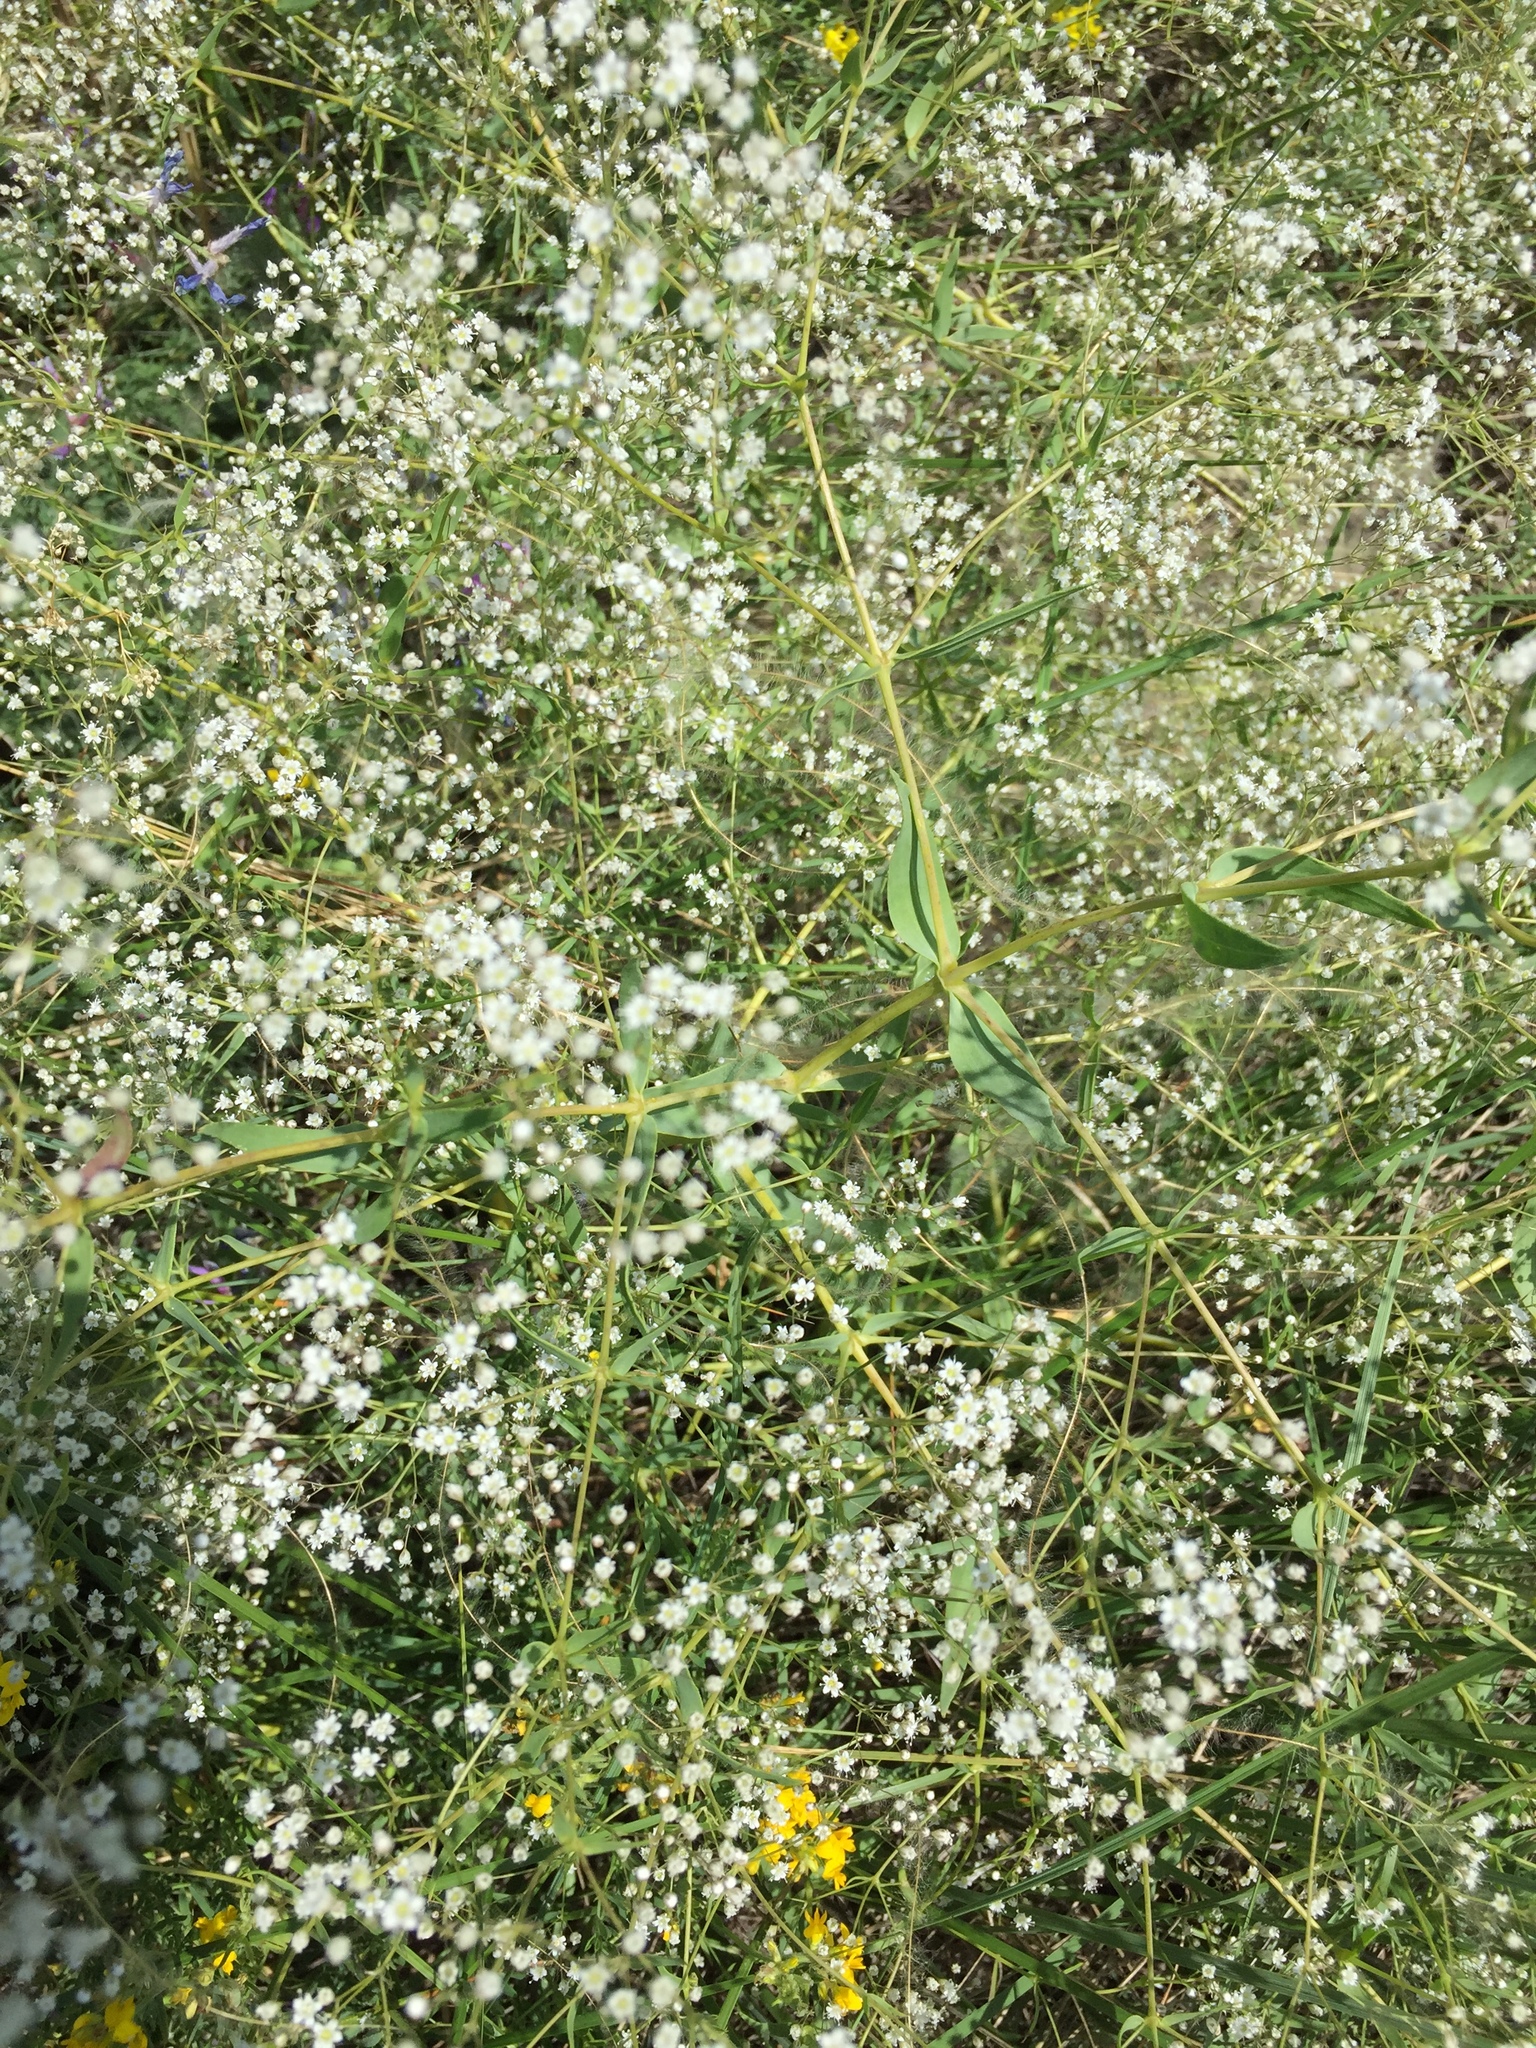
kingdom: Plantae
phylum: Tracheophyta
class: Magnoliopsida
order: Caryophyllales
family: Caryophyllaceae
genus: Gypsophila
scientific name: Gypsophila paniculata
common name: Baby's-breath
